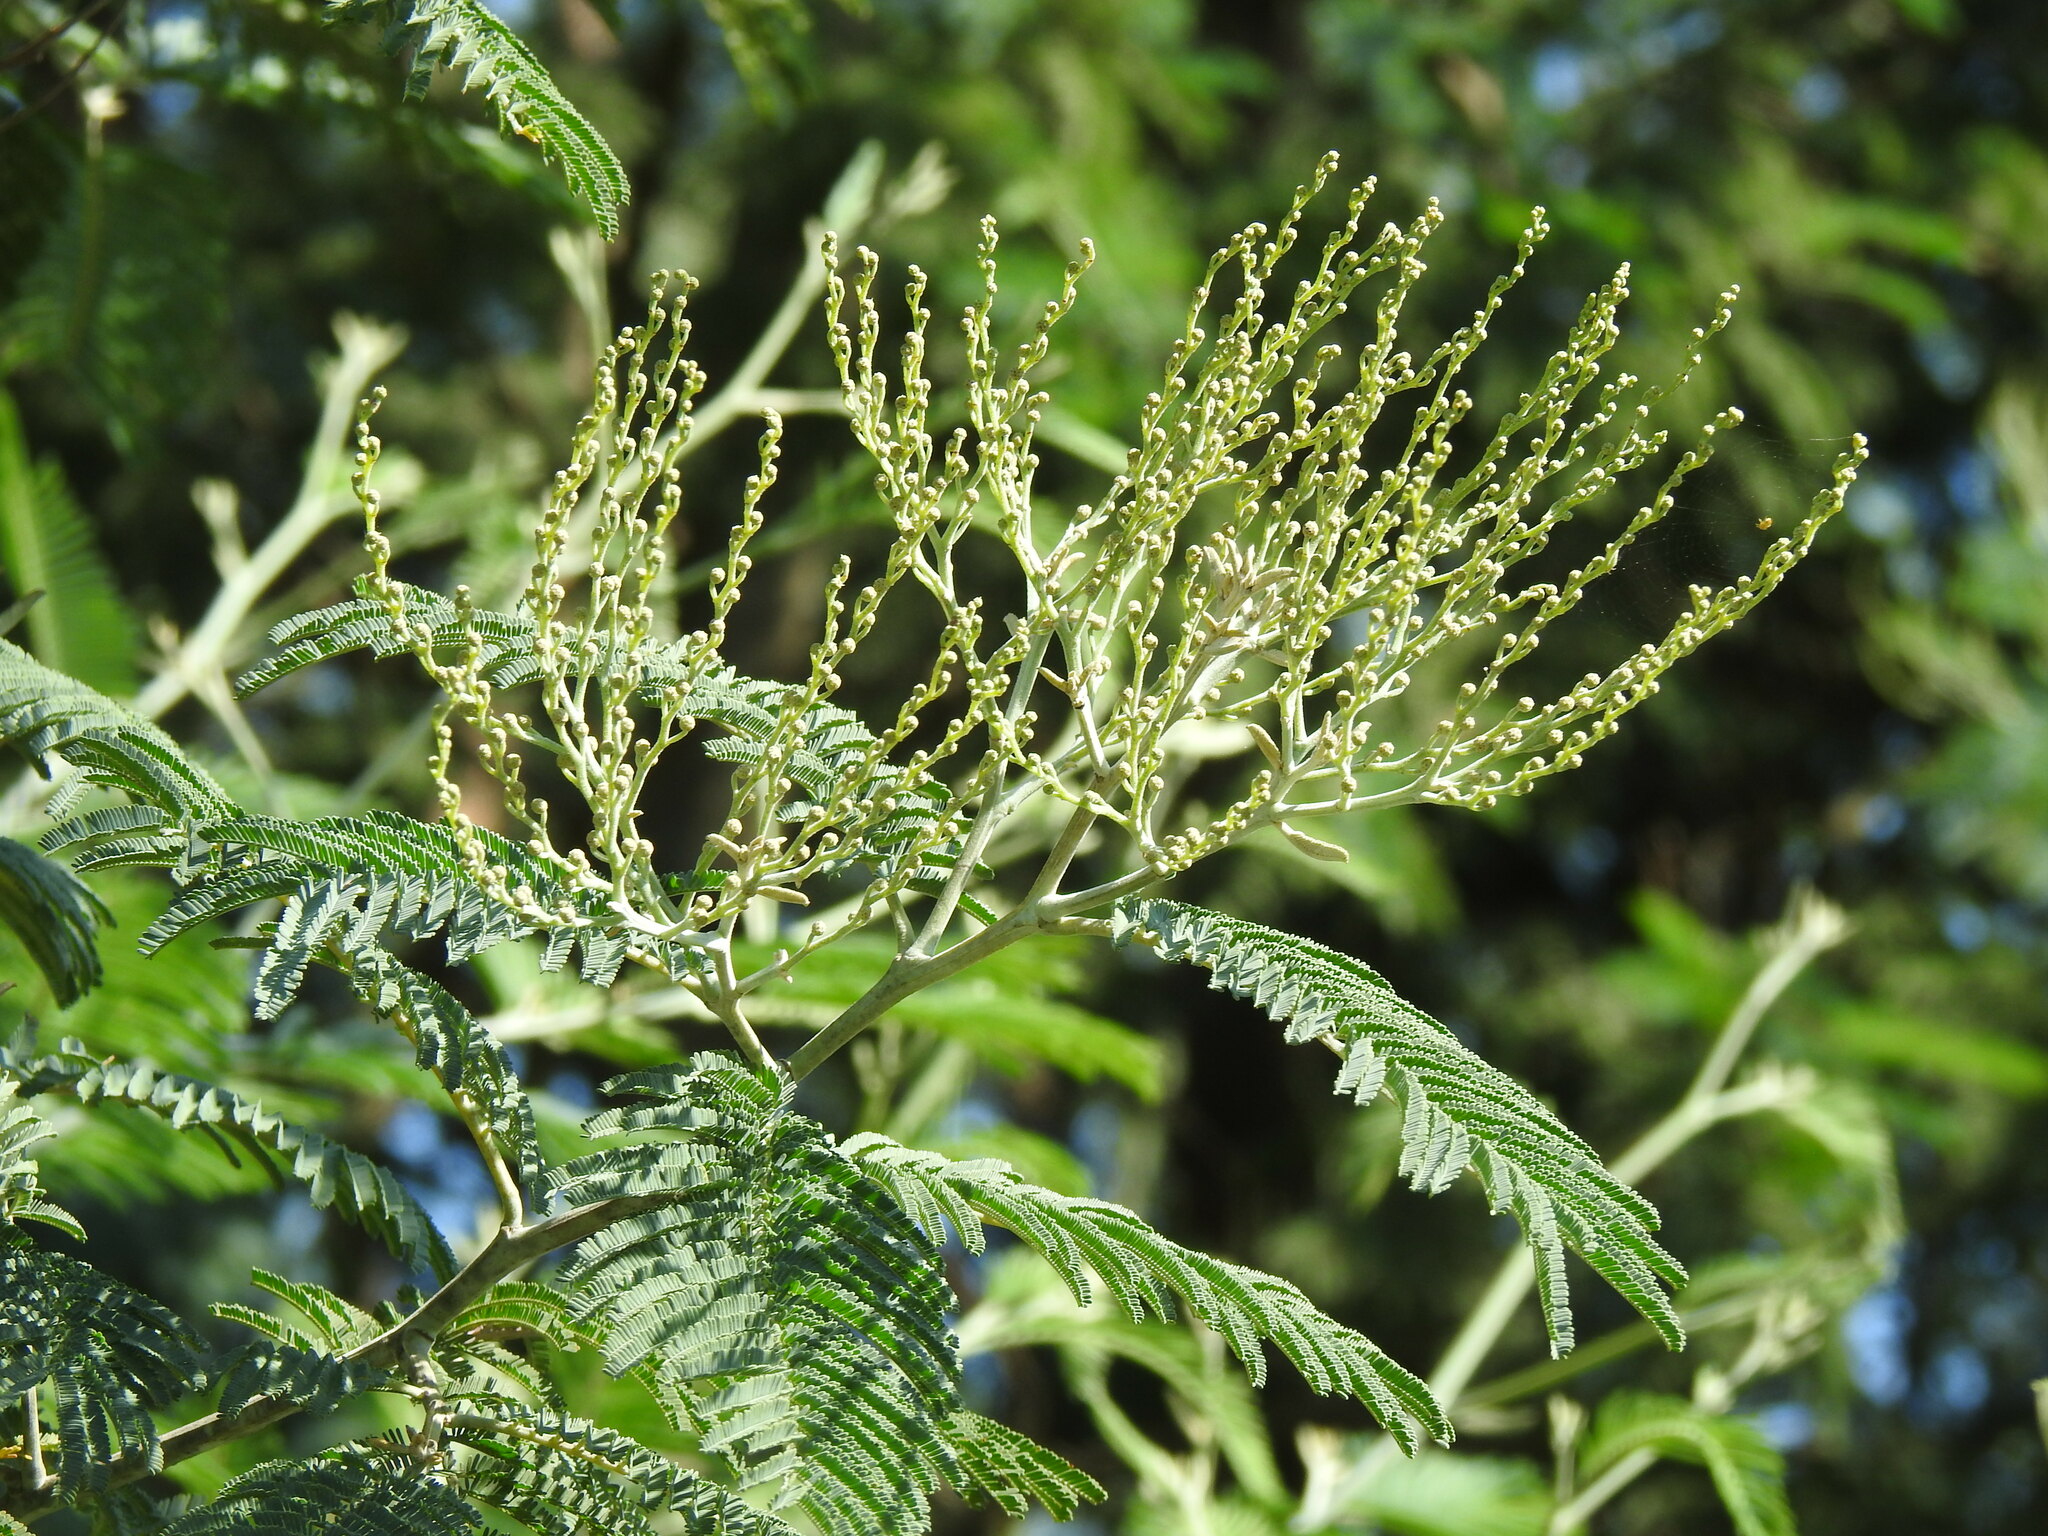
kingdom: Plantae
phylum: Tracheophyta
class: Magnoliopsida
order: Fabales
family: Fabaceae
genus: Acacia
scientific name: Acacia dealbata
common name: Silver wattle
